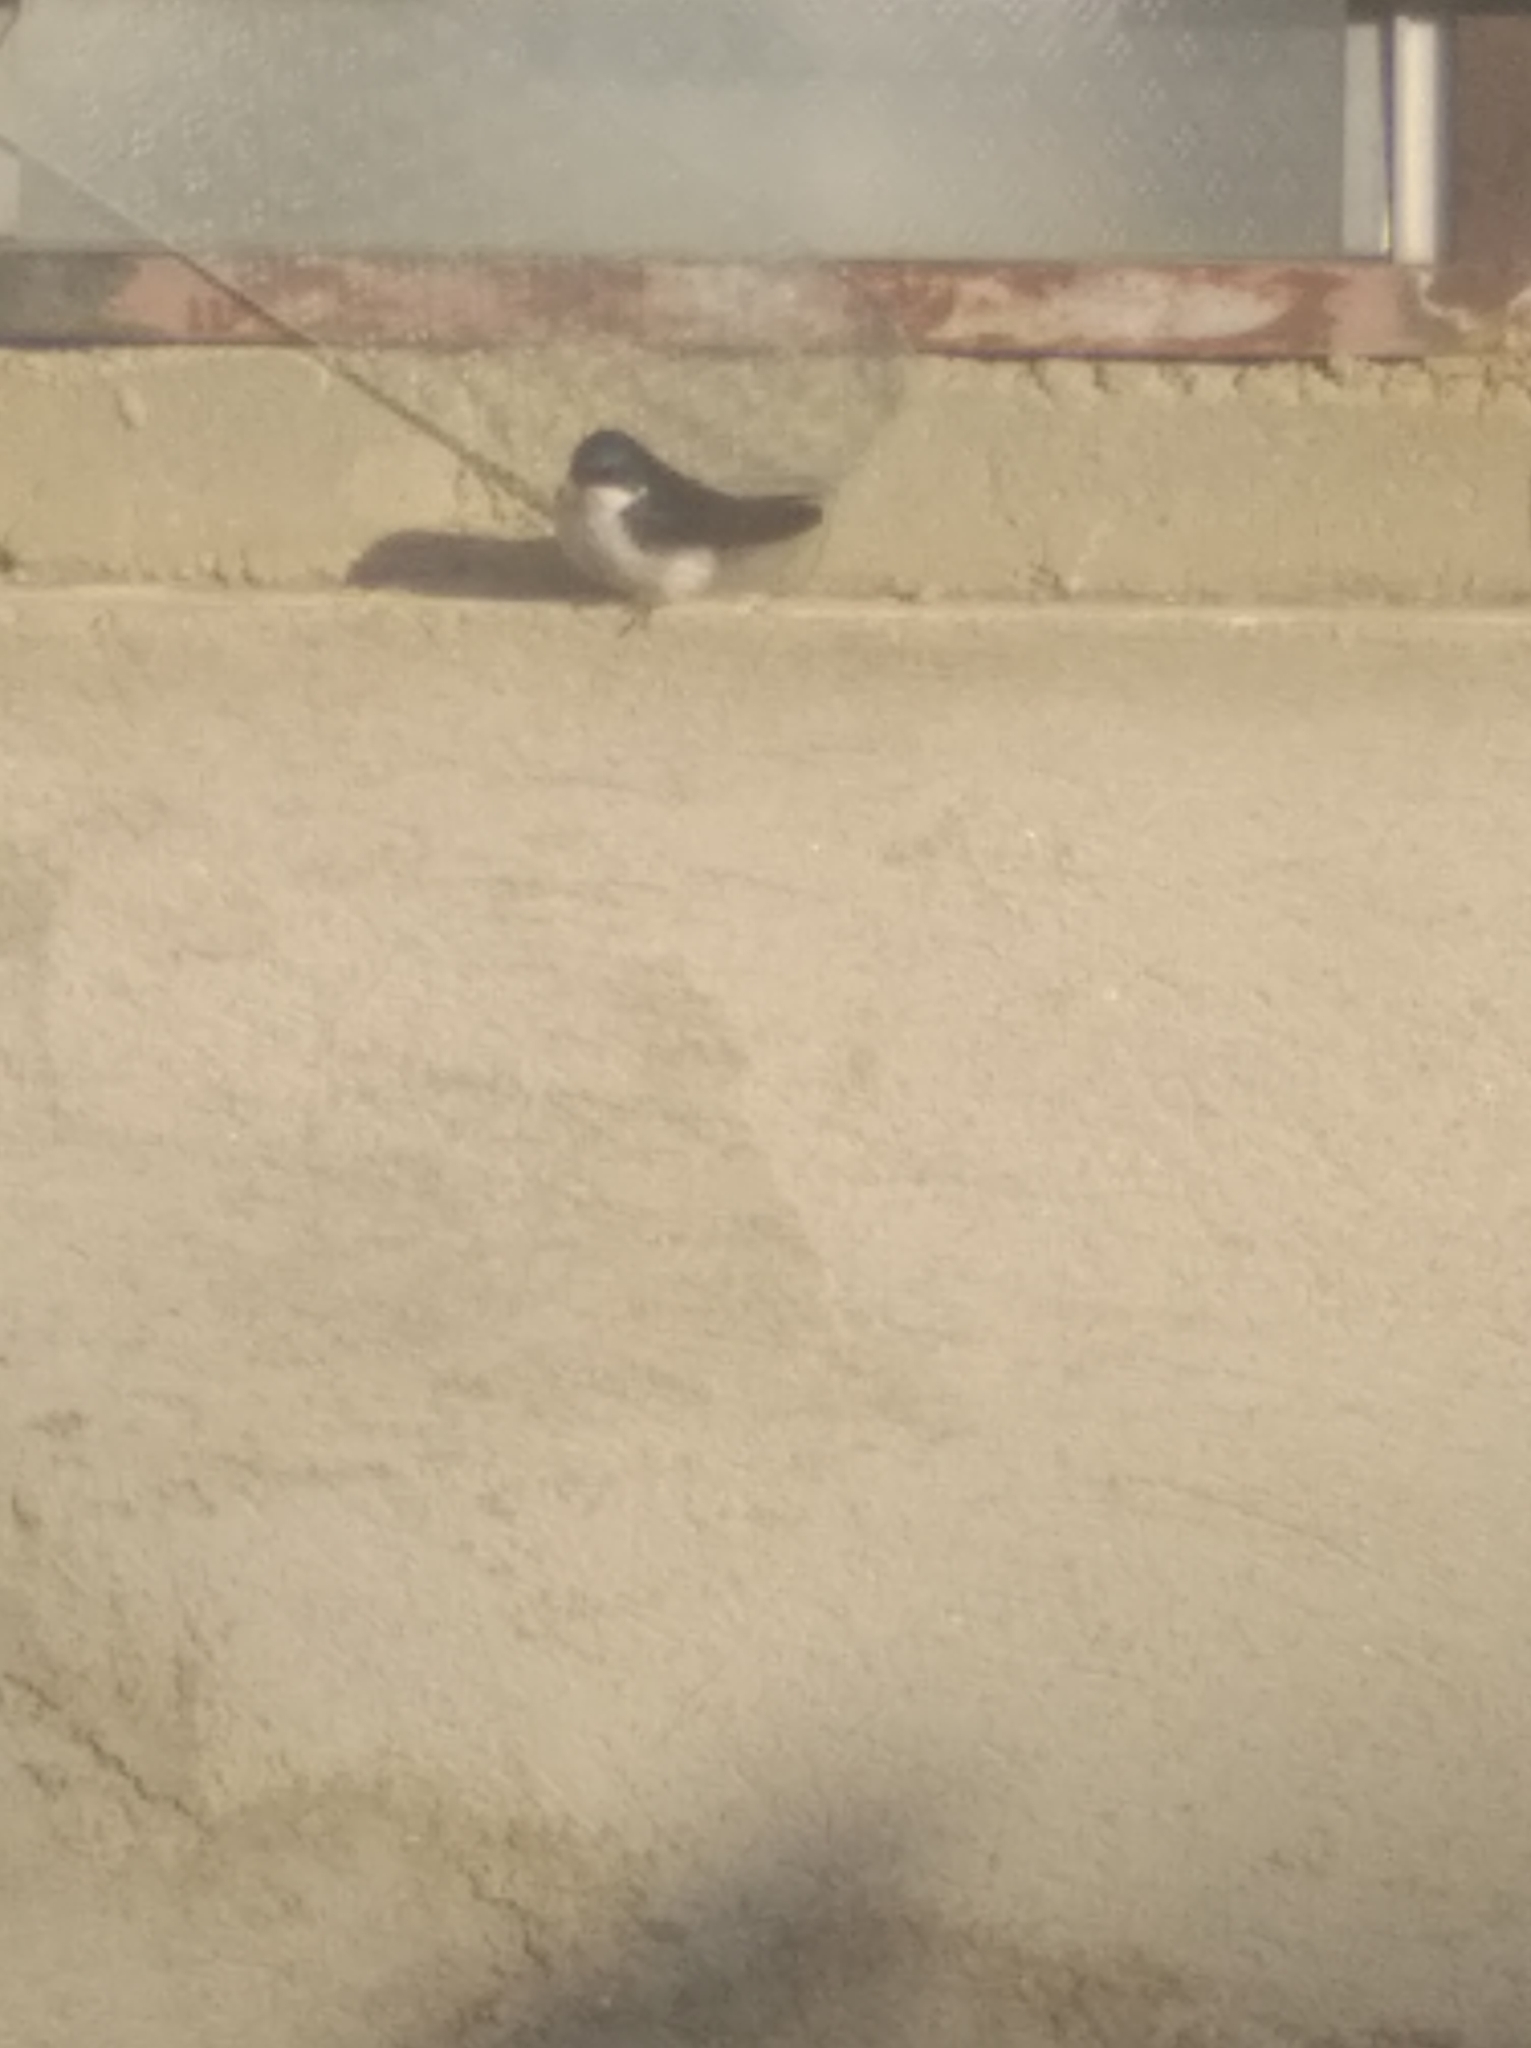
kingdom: Animalia
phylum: Chordata
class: Aves
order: Passeriformes
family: Hirundinidae
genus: Notiochelidon
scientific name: Notiochelidon cyanoleuca
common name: Blue-and-white swallow
